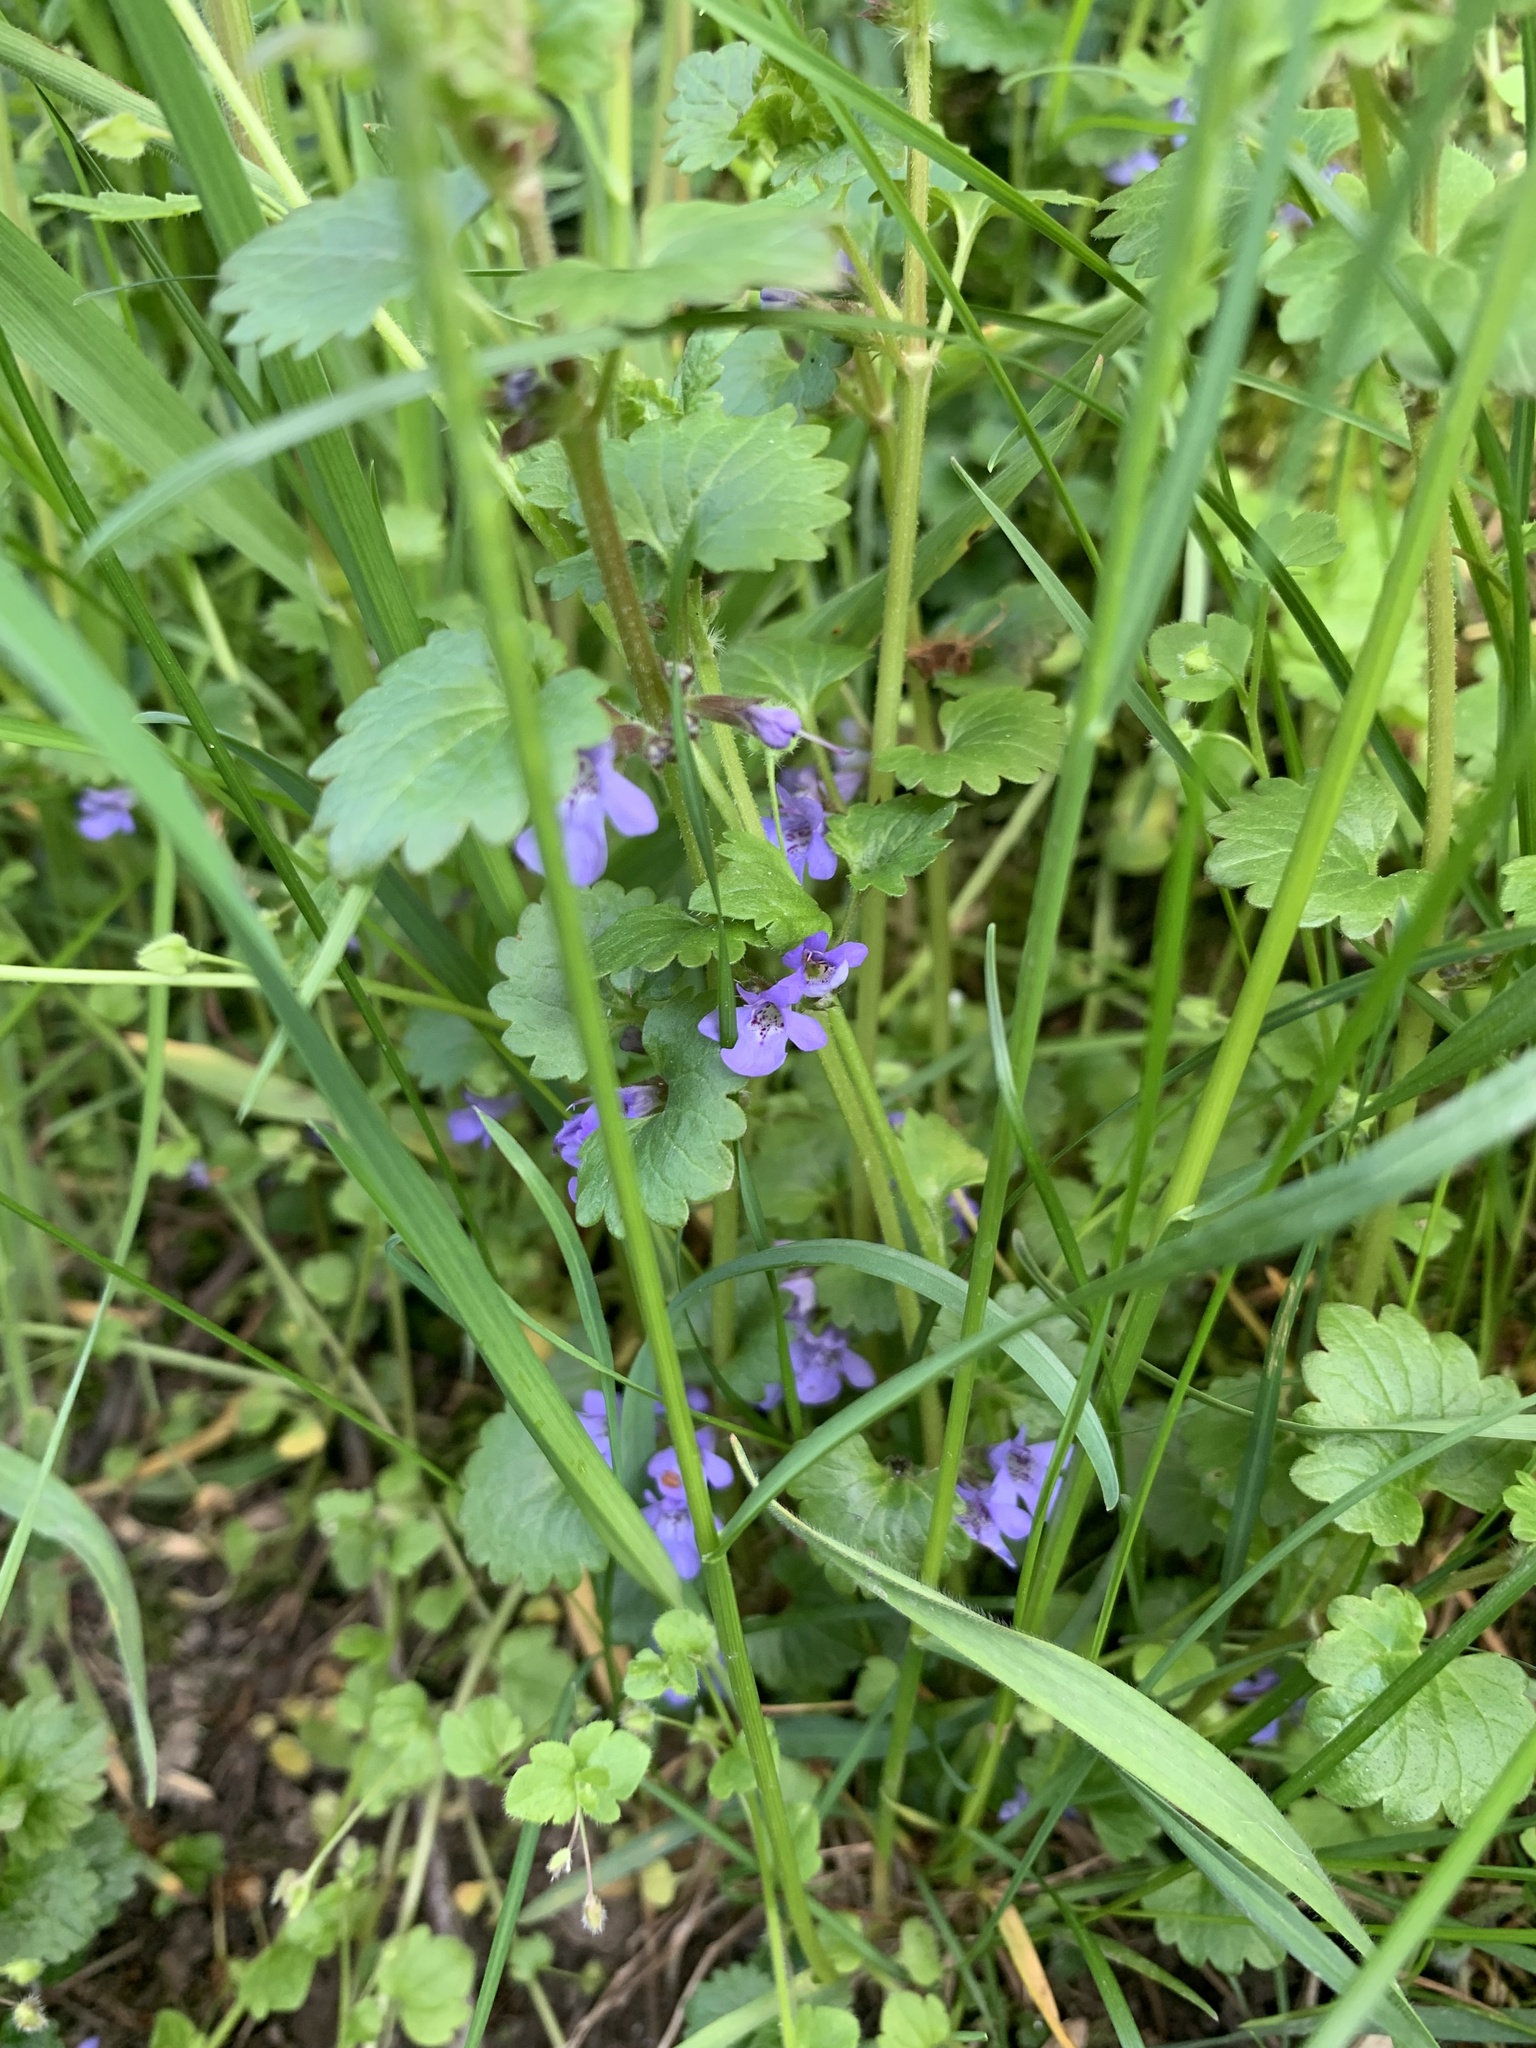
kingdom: Plantae
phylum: Tracheophyta
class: Magnoliopsida
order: Lamiales
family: Lamiaceae
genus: Glechoma
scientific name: Glechoma hederacea
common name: Ground ivy
